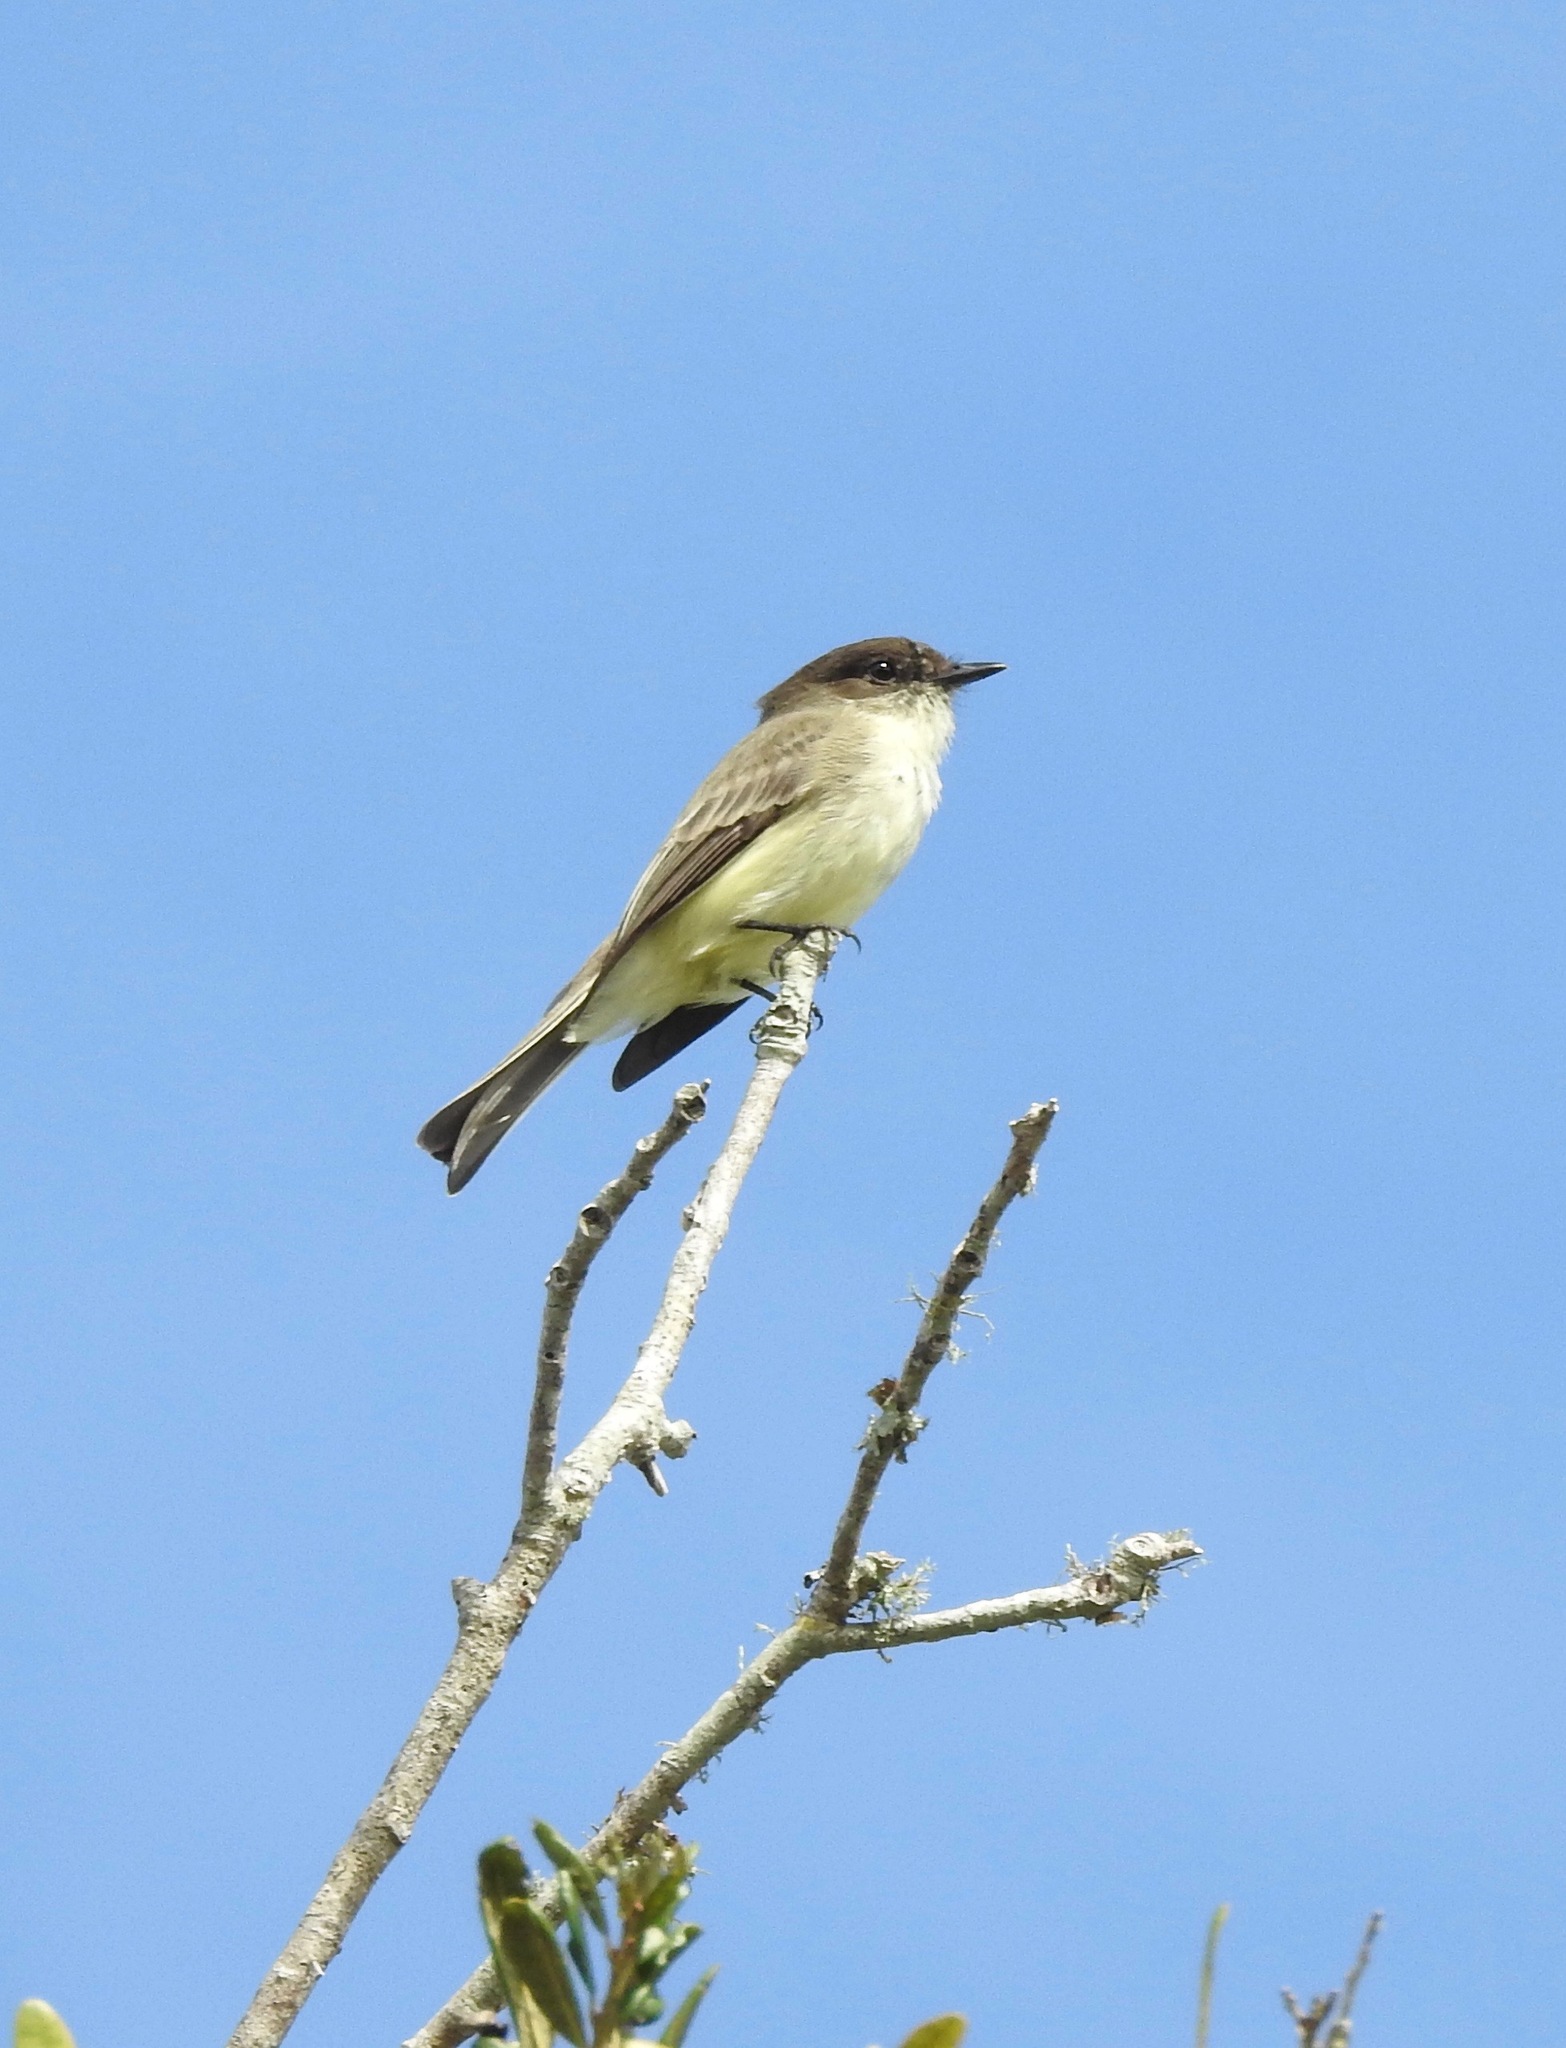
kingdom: Animalia
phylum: Chordata
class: Aves
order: Passeriformes
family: Tyrannidae
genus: Sayornis
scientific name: Sayornis phoebe
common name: Eastern phoebe
